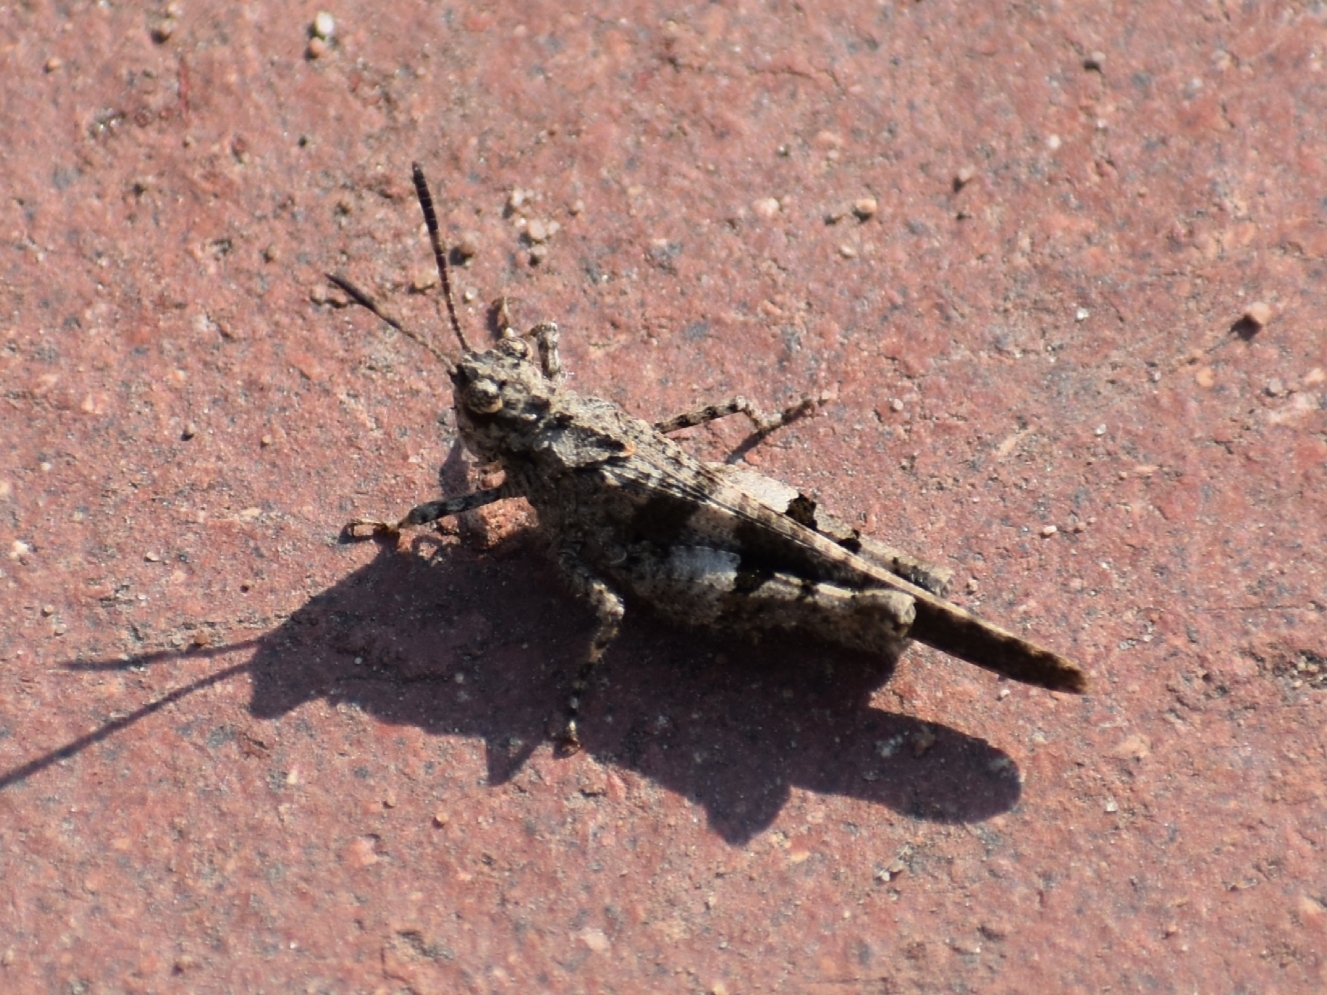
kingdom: Animalia
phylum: Arthropoda
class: Insecta
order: Orthoptera
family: Acrididae
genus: Trilophidia
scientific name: Trilophidia conturbata
